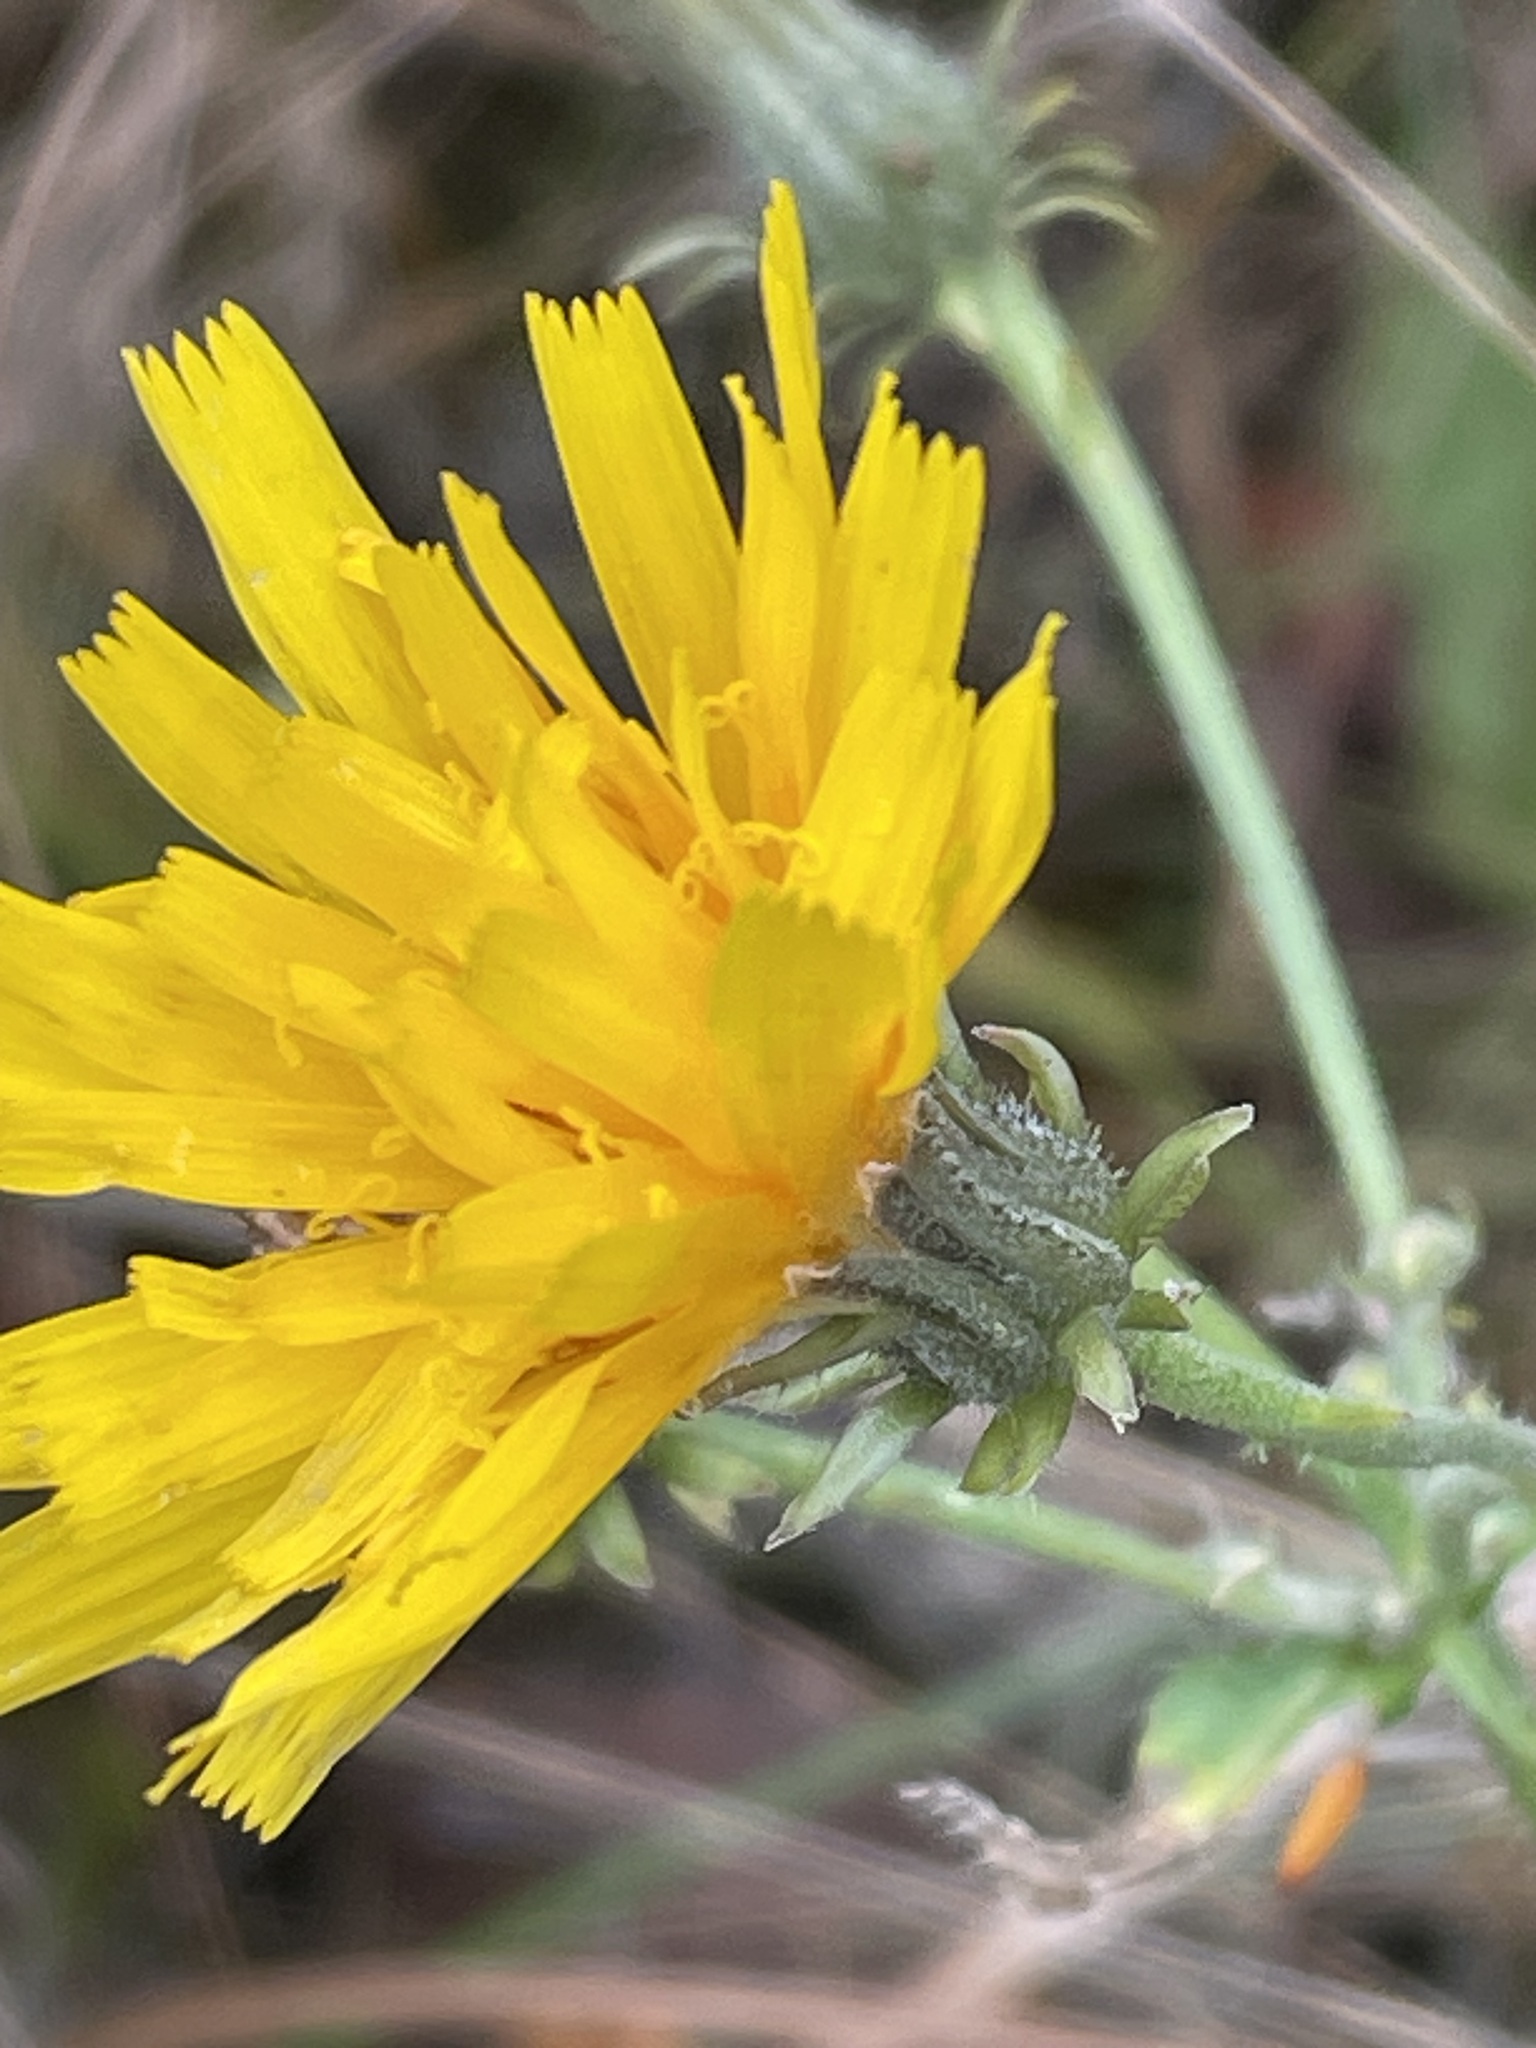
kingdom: Plantae
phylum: Tracheophyta
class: Magnoliopsida
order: Asterales
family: Asteraceae
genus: Picris
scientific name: Picris hieracioides
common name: Hawkweed oxtongue
